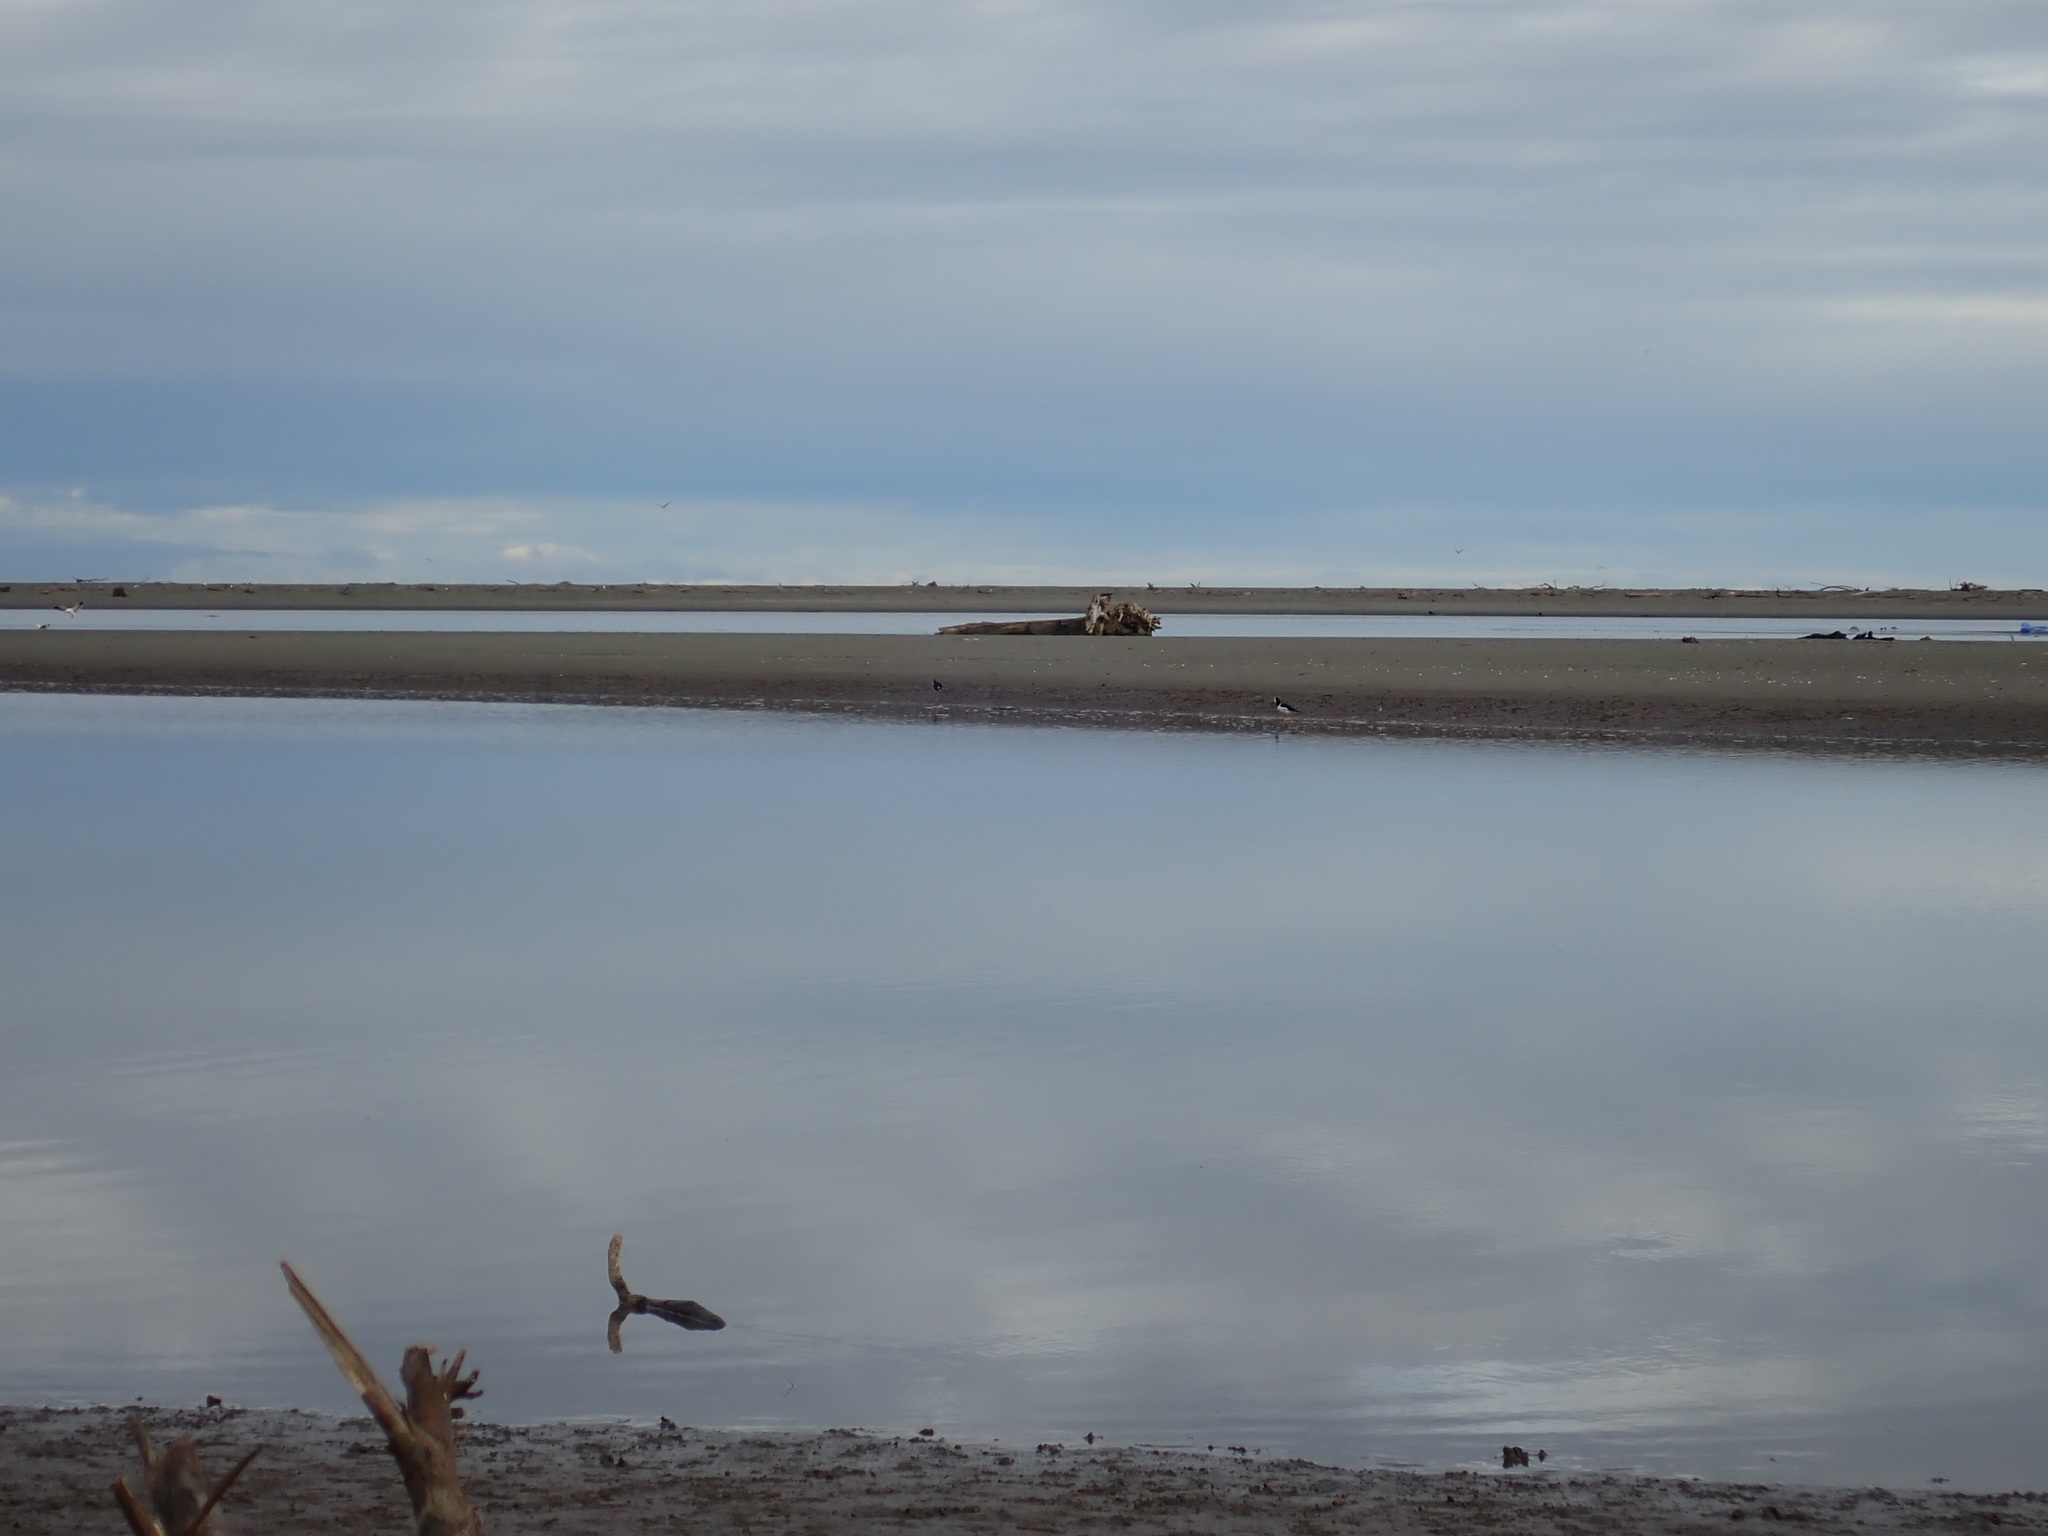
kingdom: Animalia
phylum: Chordata
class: Aves
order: Charadriiformes
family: Recurvirostridae
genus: Himantopus
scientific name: Himantopus leucocephalus
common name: White-headed stilt
